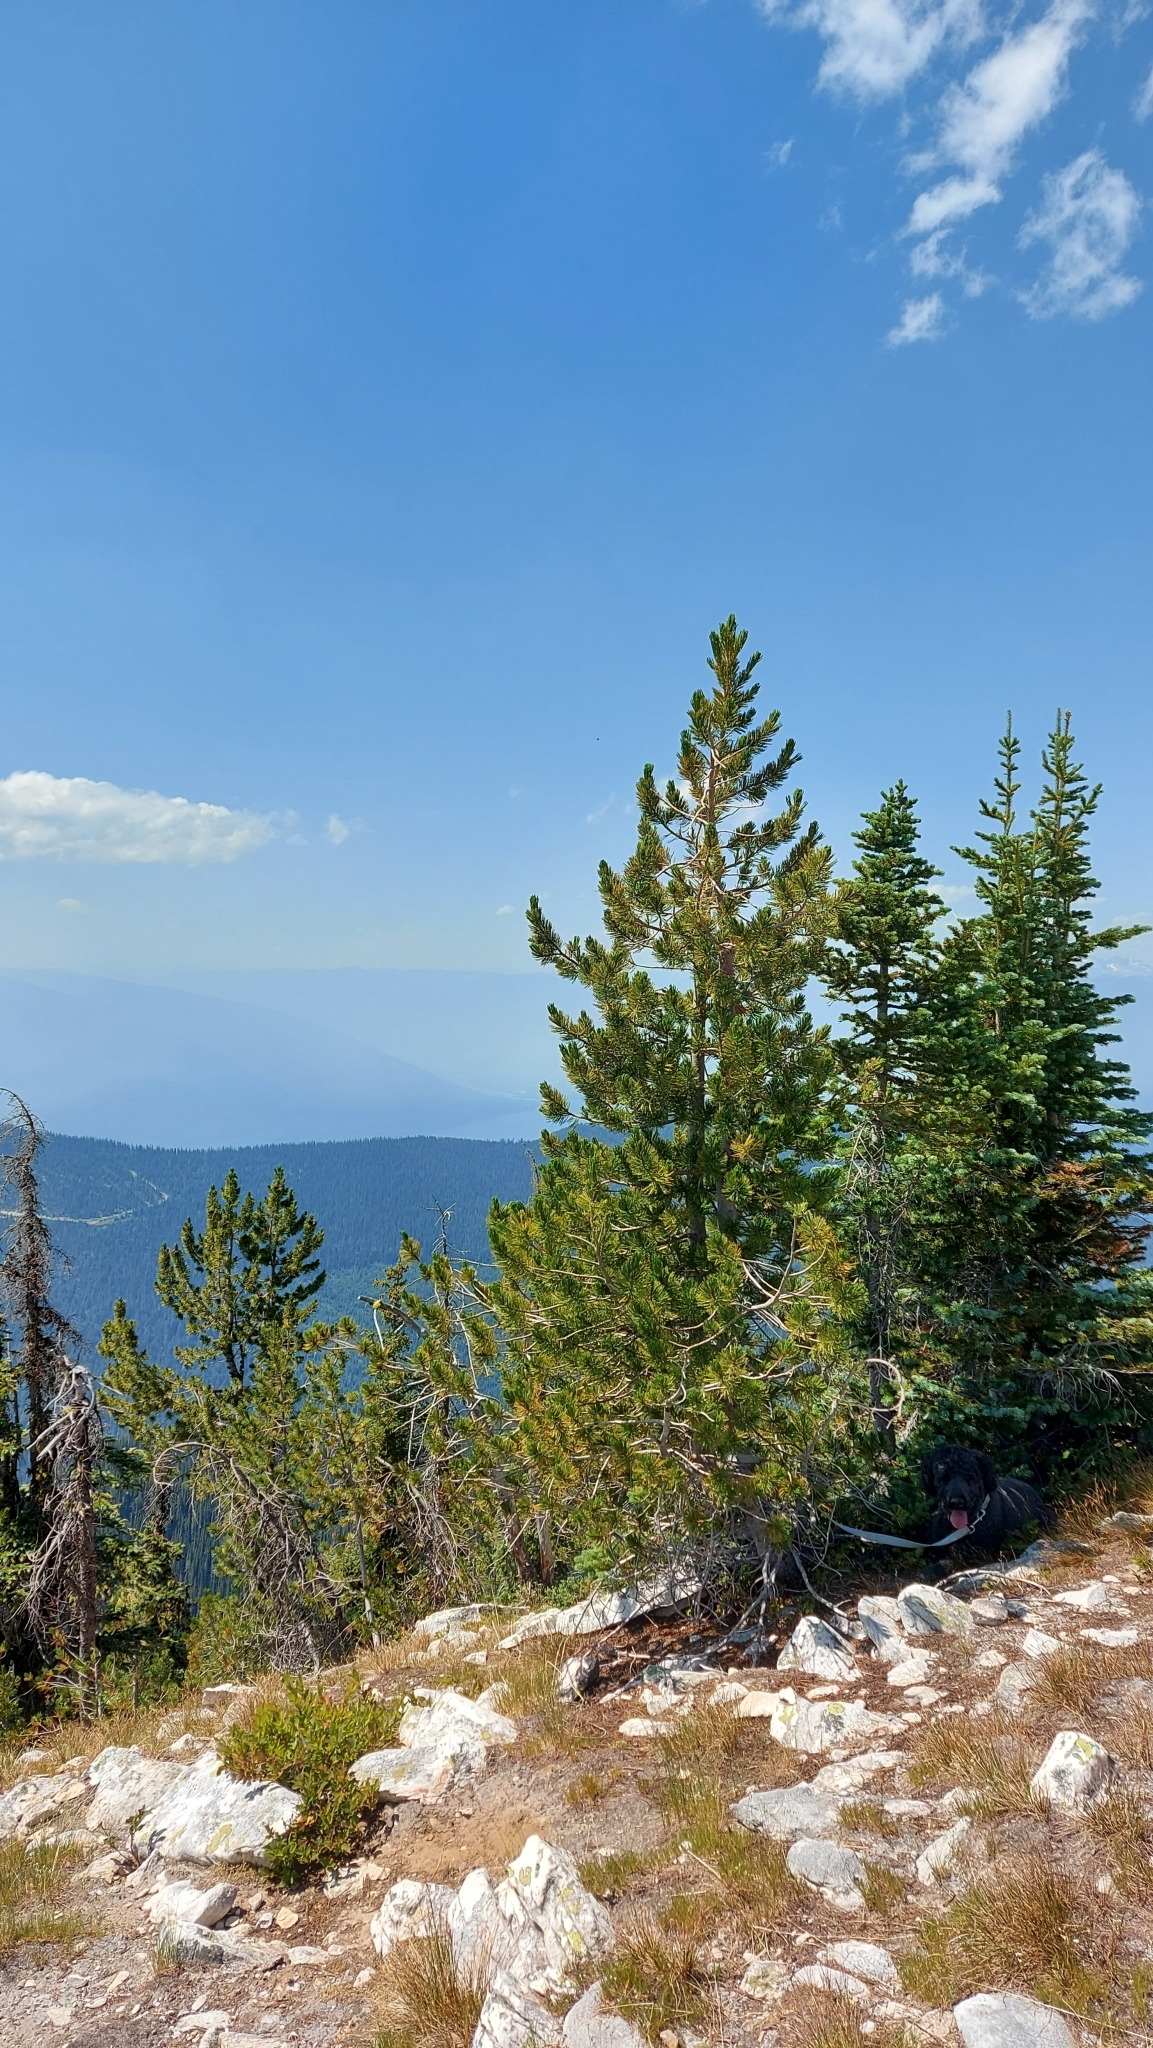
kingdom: Plantae
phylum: Tracheophyta
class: Pinopsida
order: Pinales
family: Pinaceae
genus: Pinus
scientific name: Pinus albicaulis
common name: Whitebark pine
